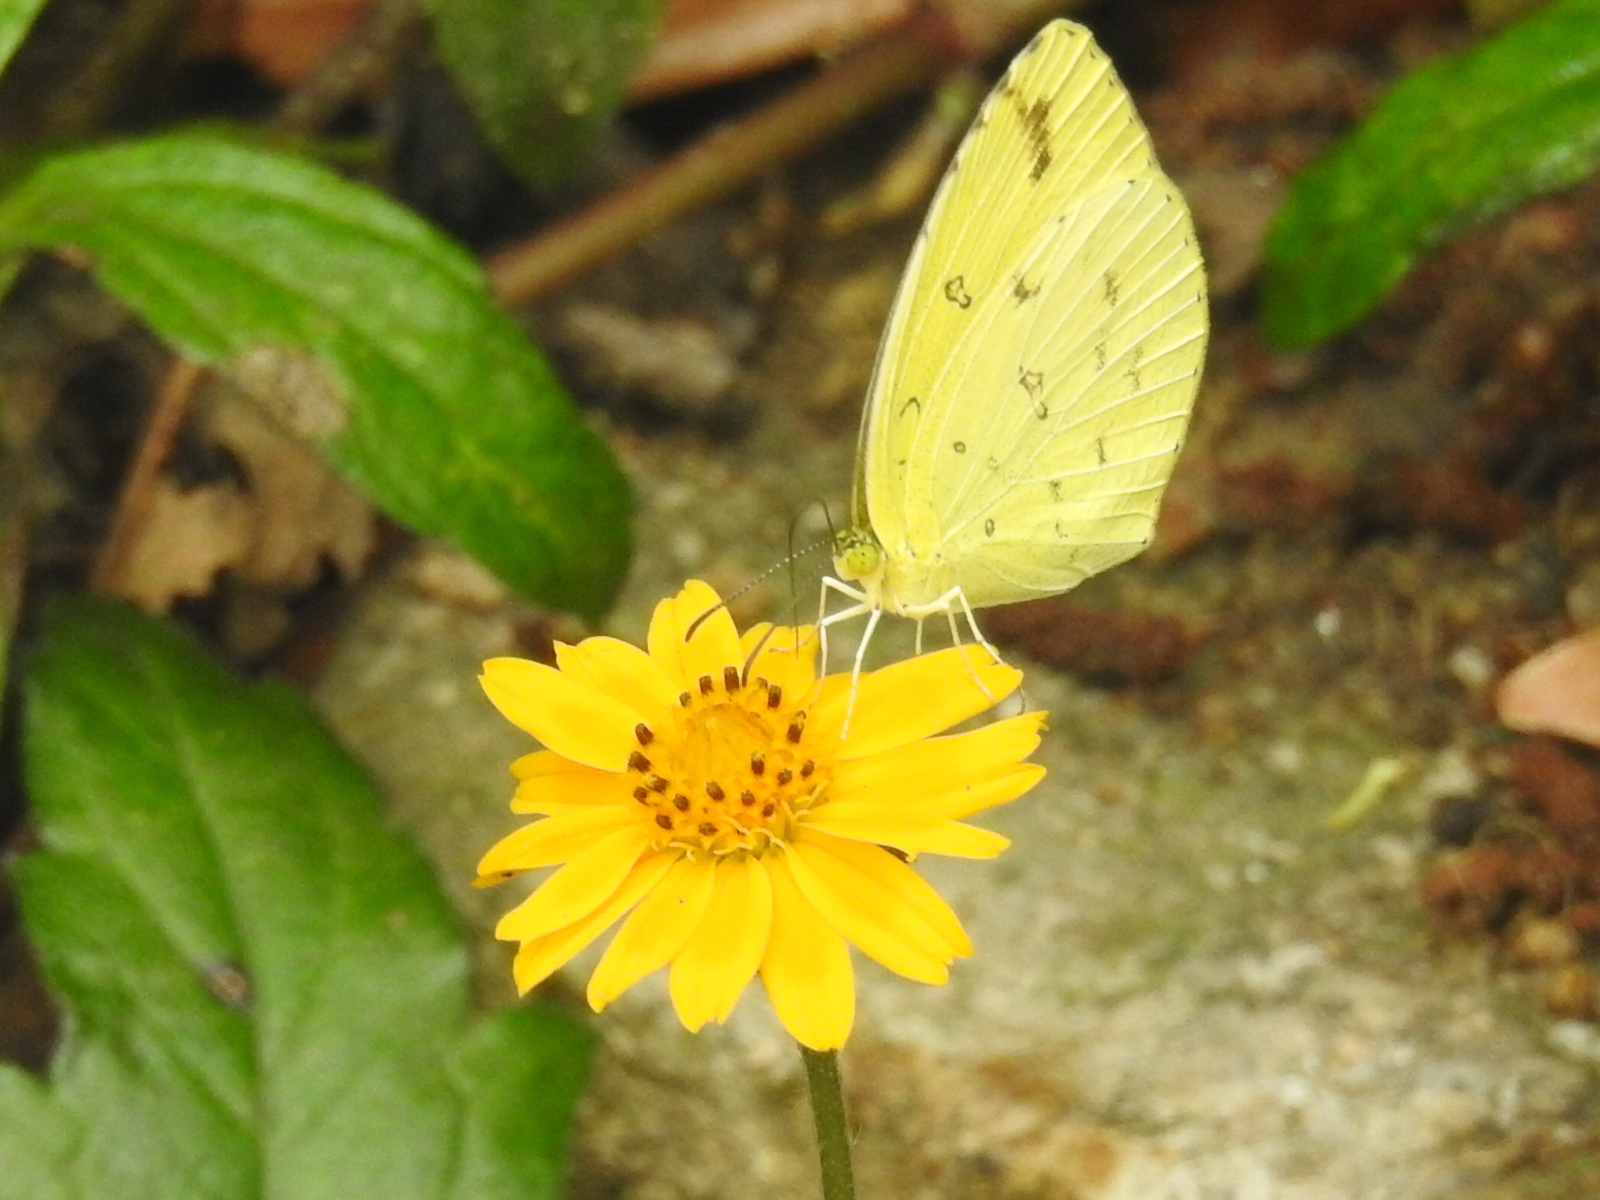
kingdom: Animalia
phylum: Arthropoda
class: Insecta
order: Lepidoptera
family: Pieridae
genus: Eurema
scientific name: Eurema hecabe
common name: Pale grass yellow
